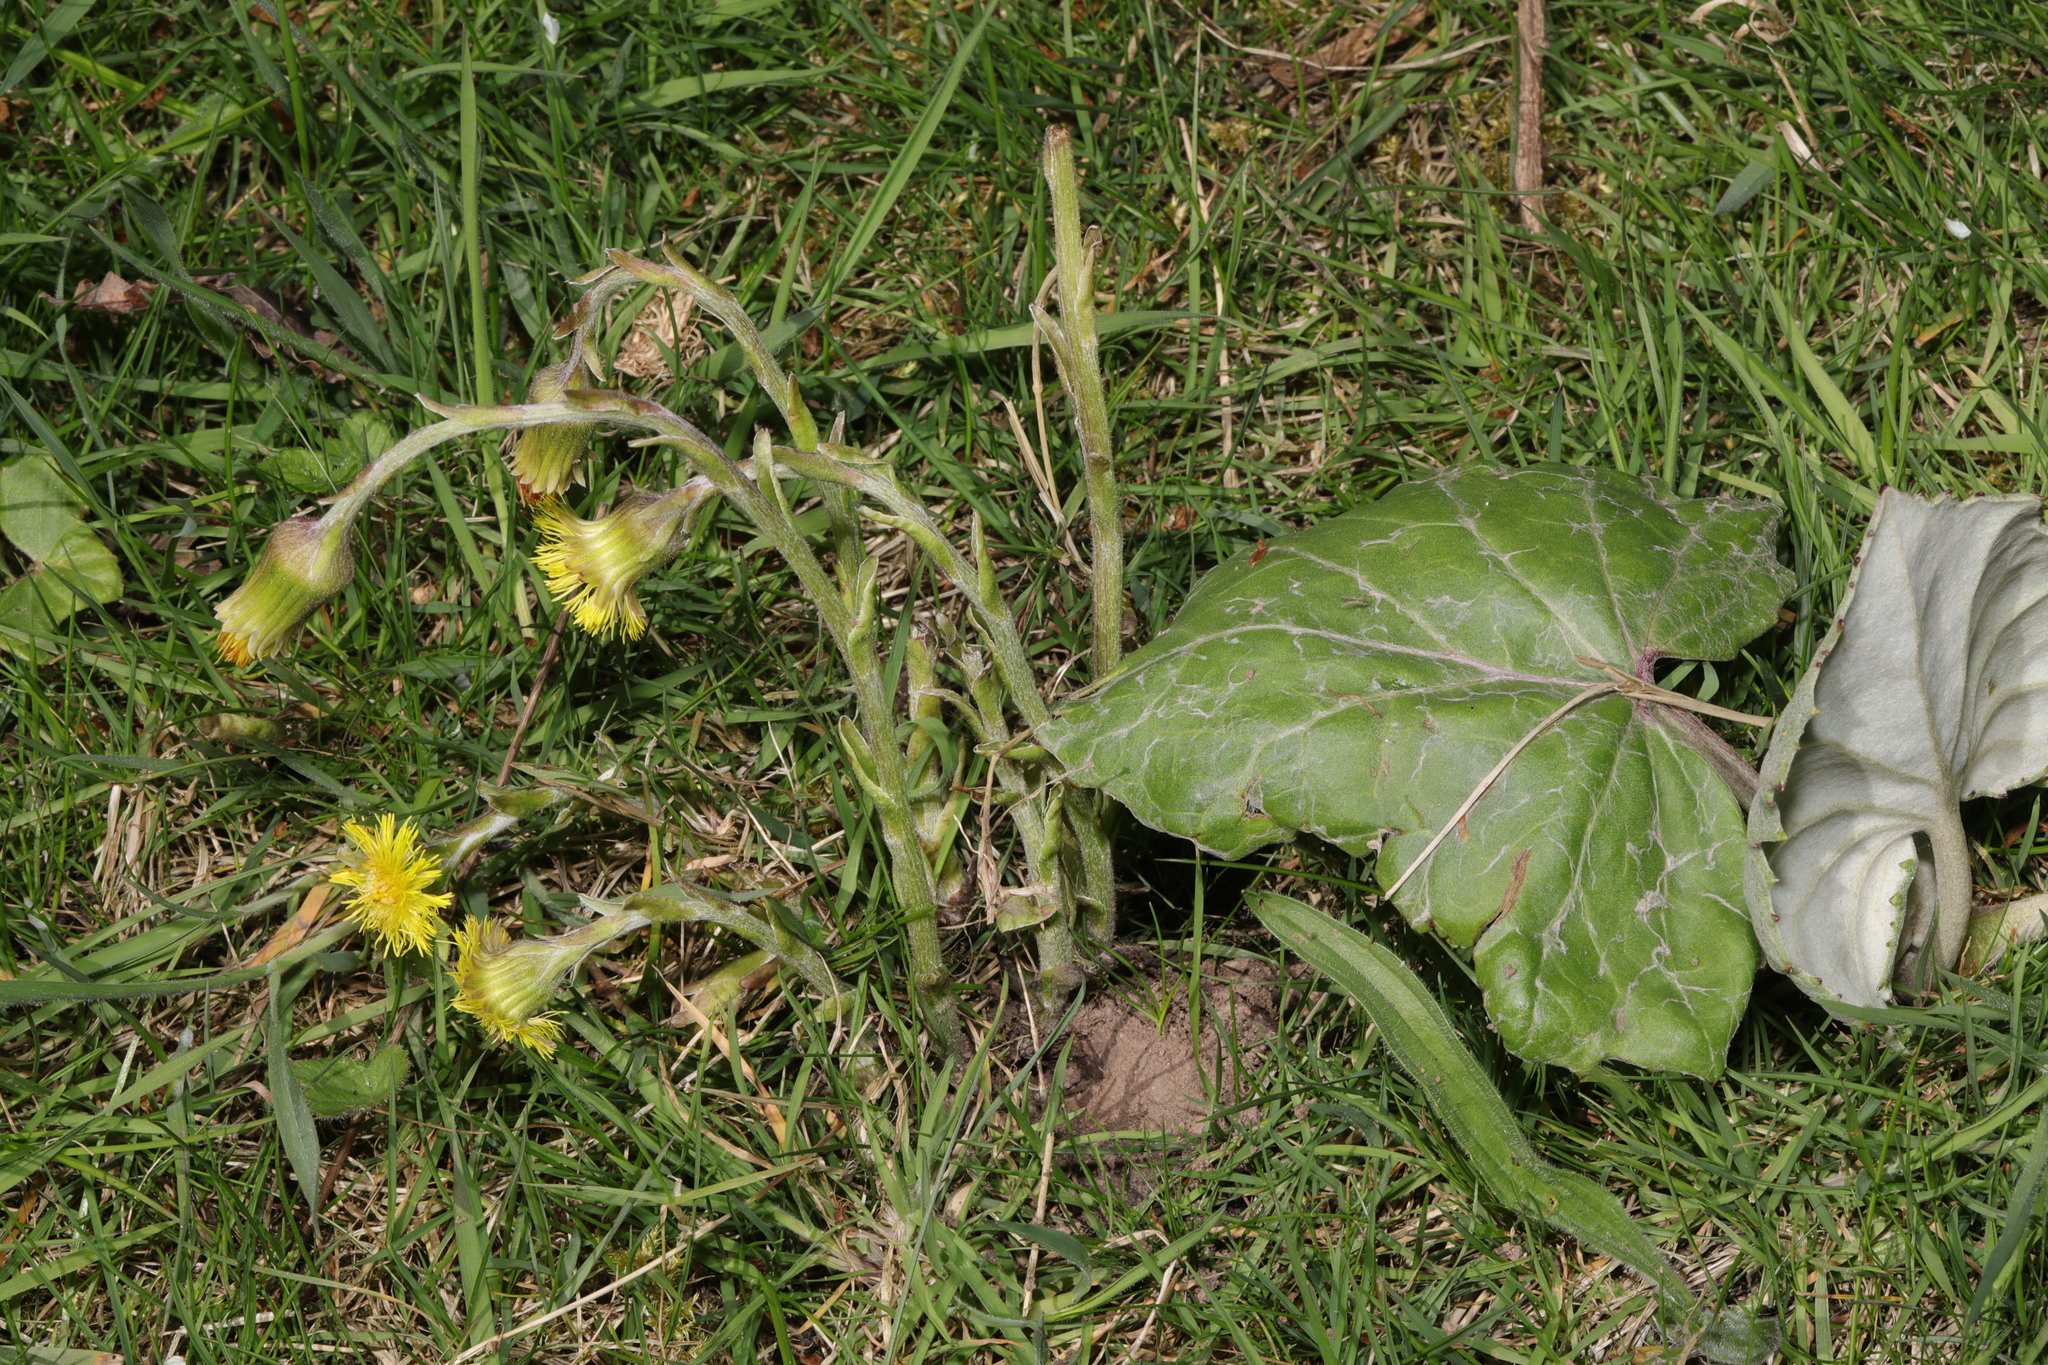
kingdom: Plantae
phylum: Tracheophyta
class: Magnoliopsida
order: Asterales
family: Asteraceae
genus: Tussilago
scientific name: Tussilago farfara
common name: Coltsfoot
